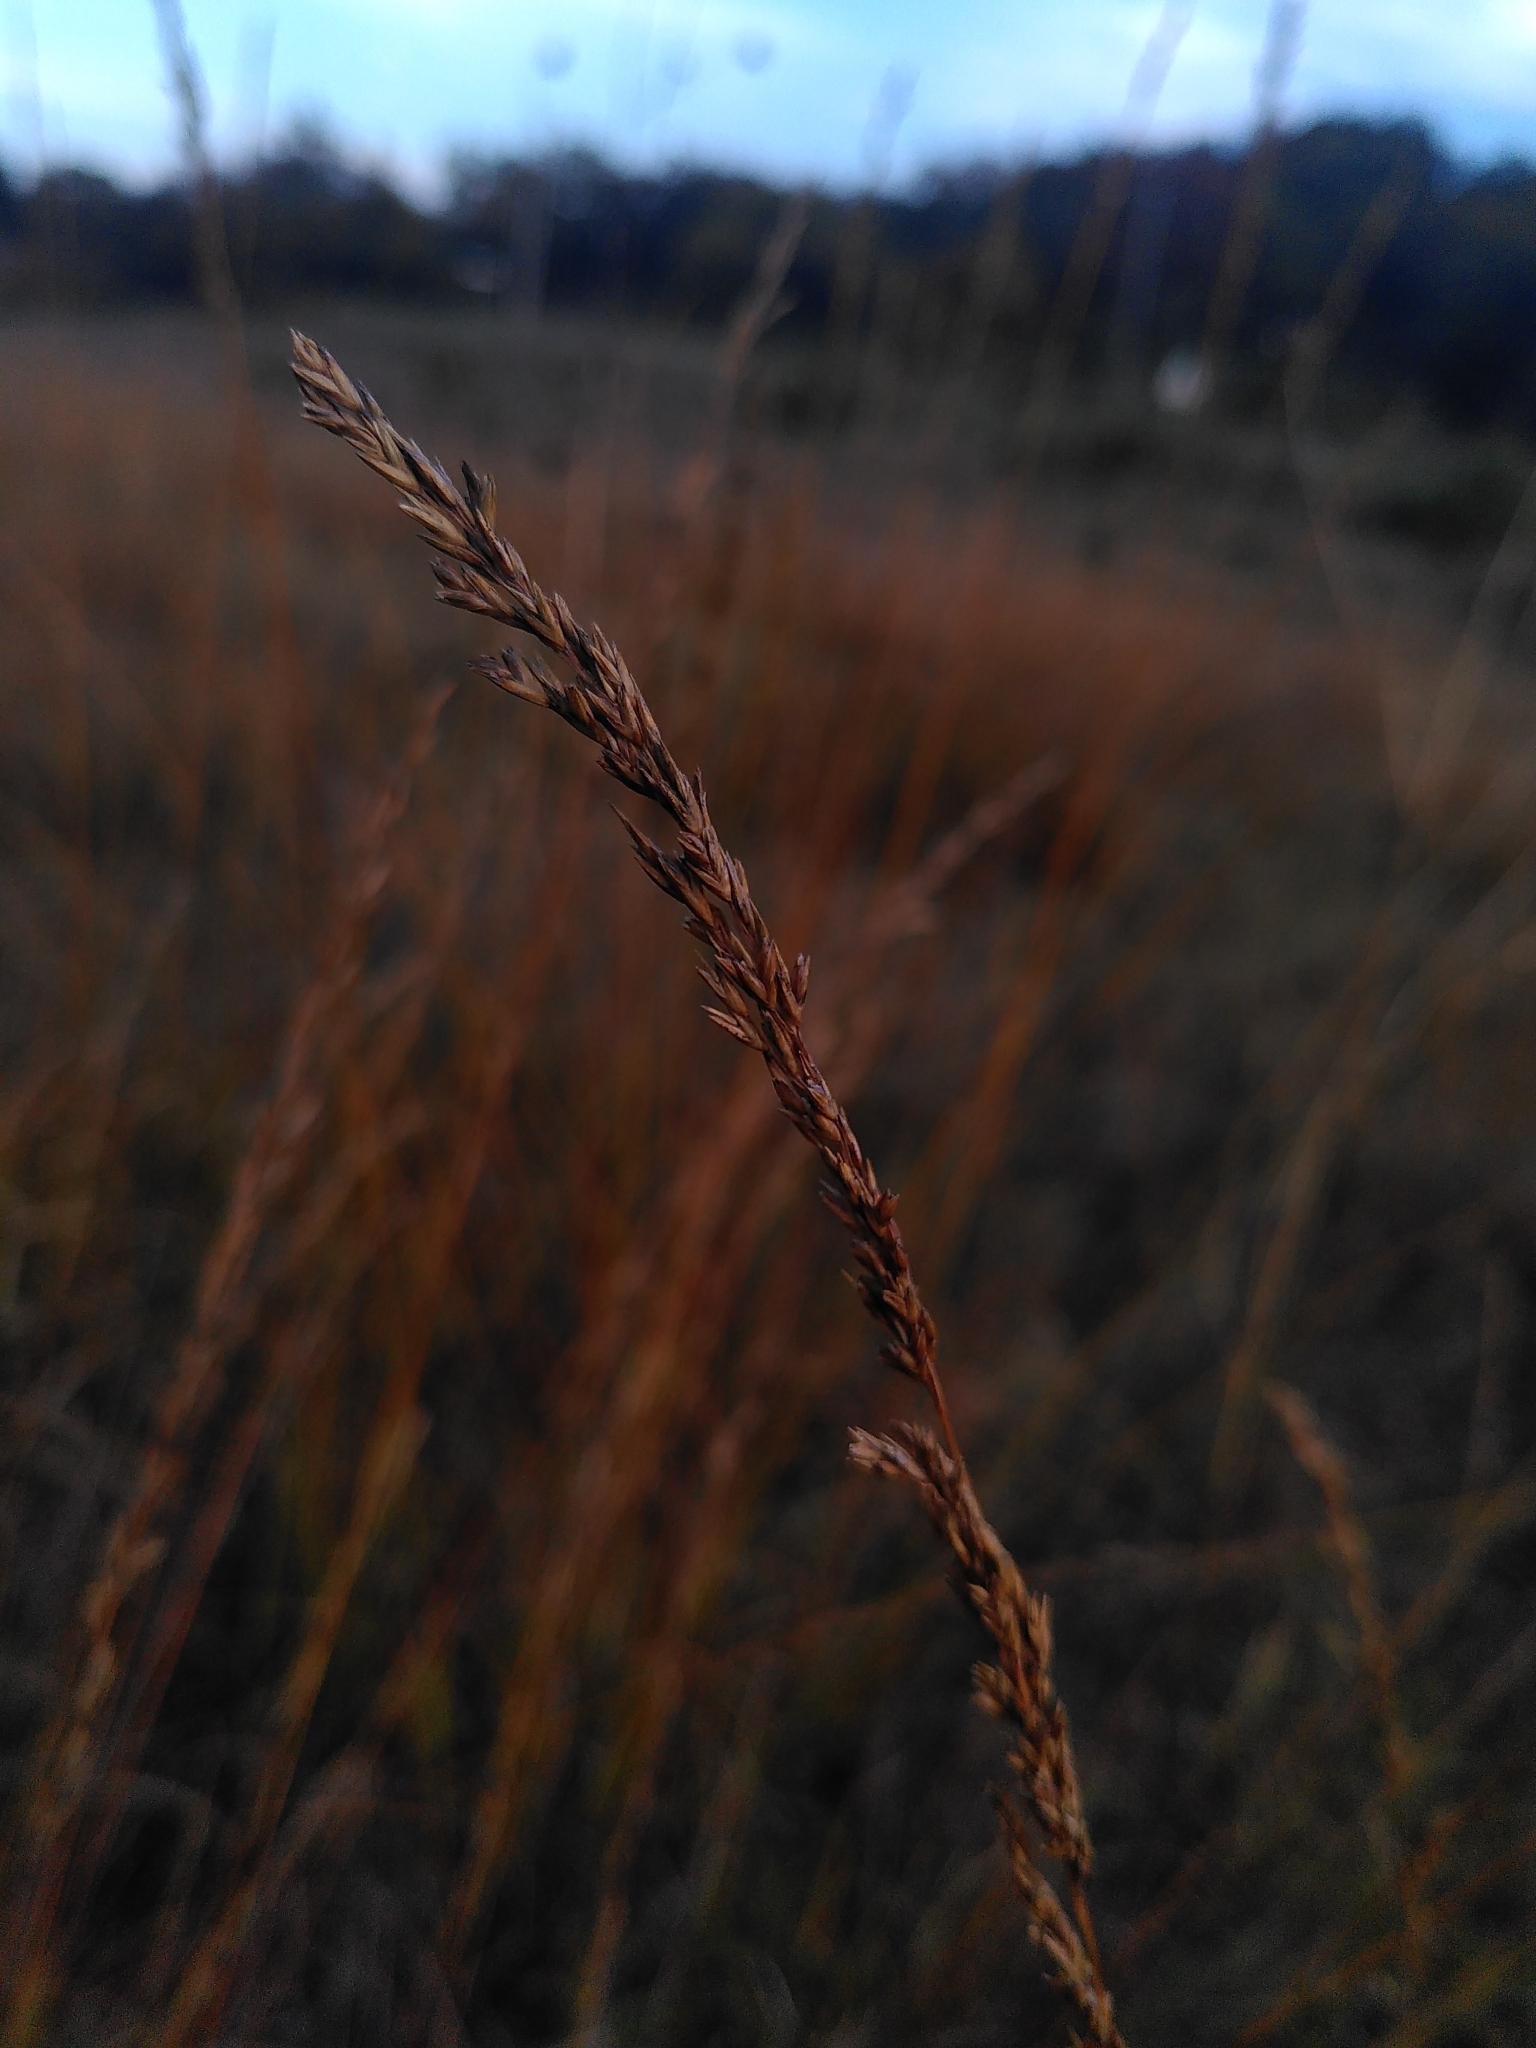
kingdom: Plantae
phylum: Tracheophyta
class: Liliopsida
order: Poales
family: Poaceae
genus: Molinia
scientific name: Molinia caerulea
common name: Purple moor-grass
